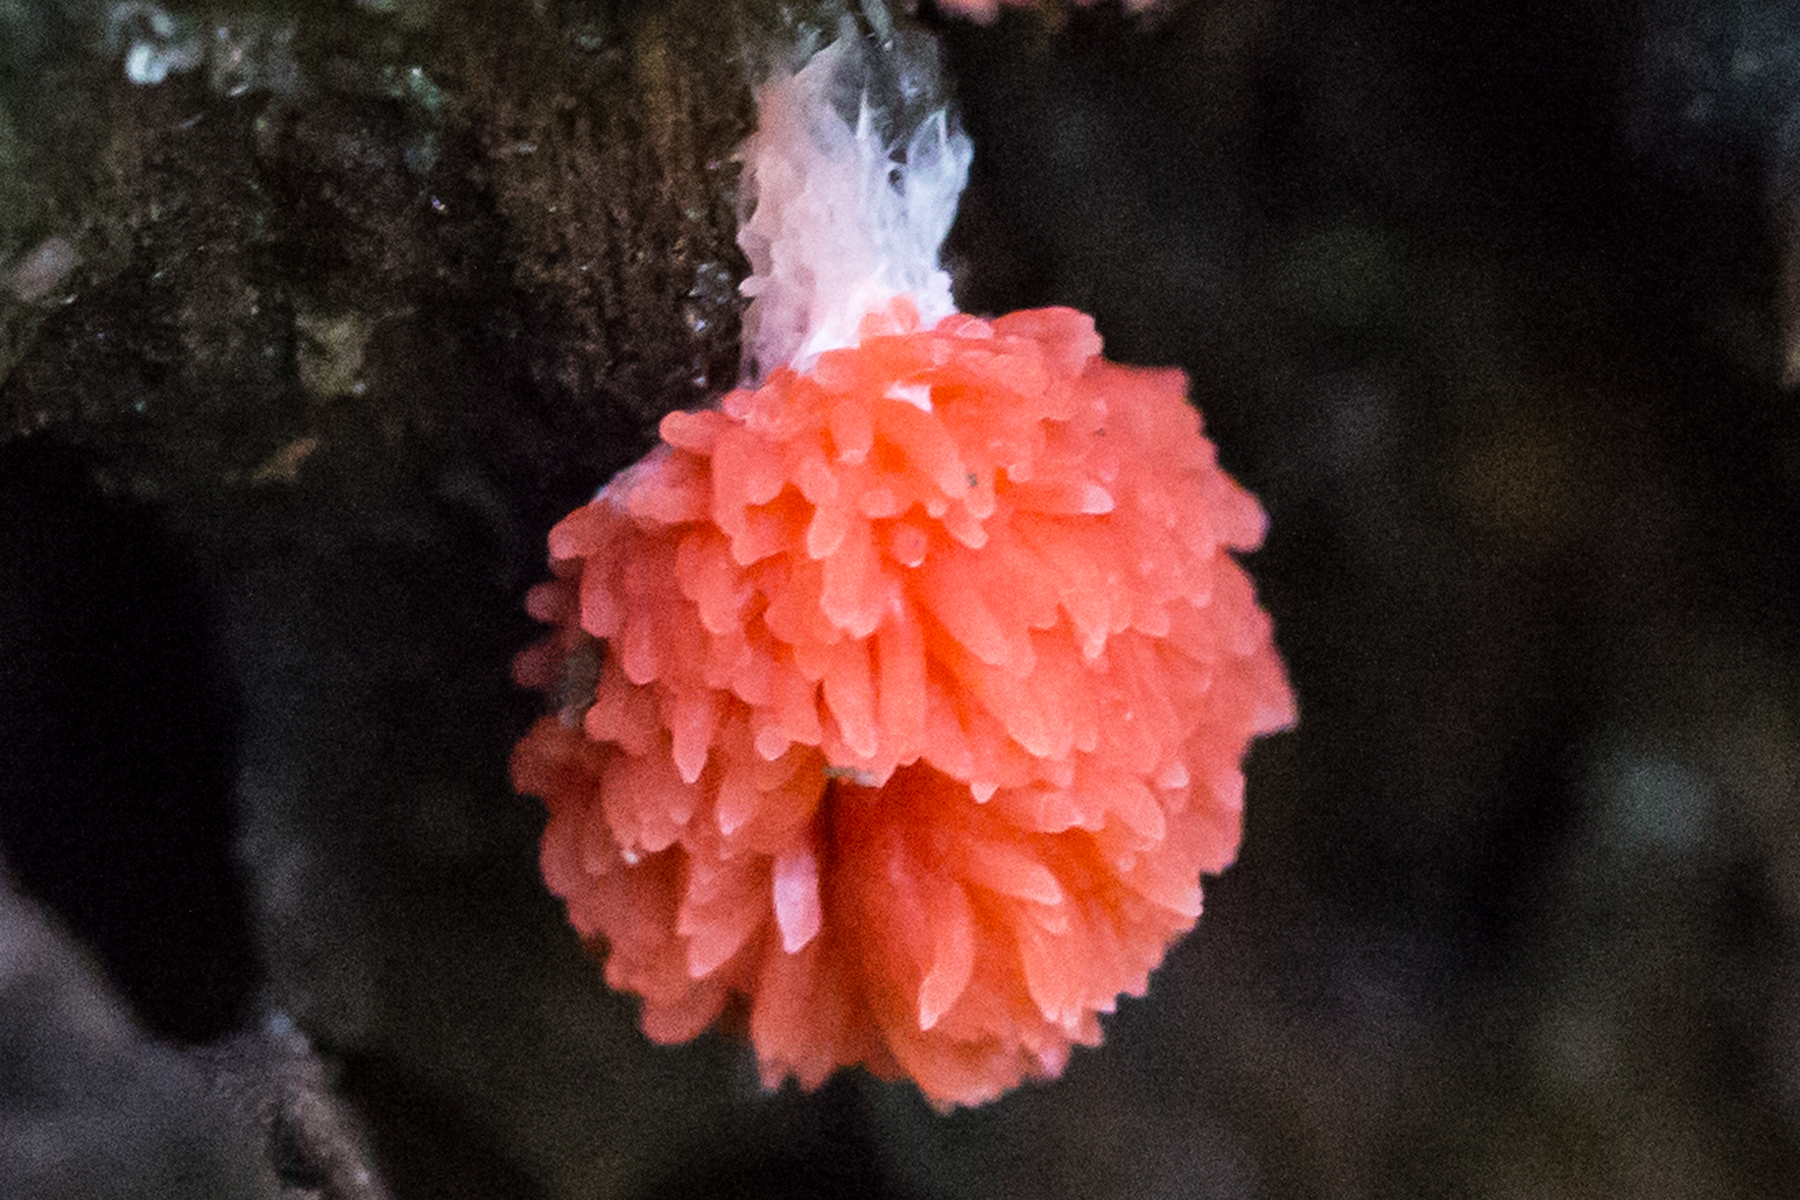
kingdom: Protozoa
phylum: Mycetozoa
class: Myxomycetes
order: Cribrariales
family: Tubiferaceae
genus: Tubifera
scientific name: Tubifera ferruginosa
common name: Red raspberry slime mold
